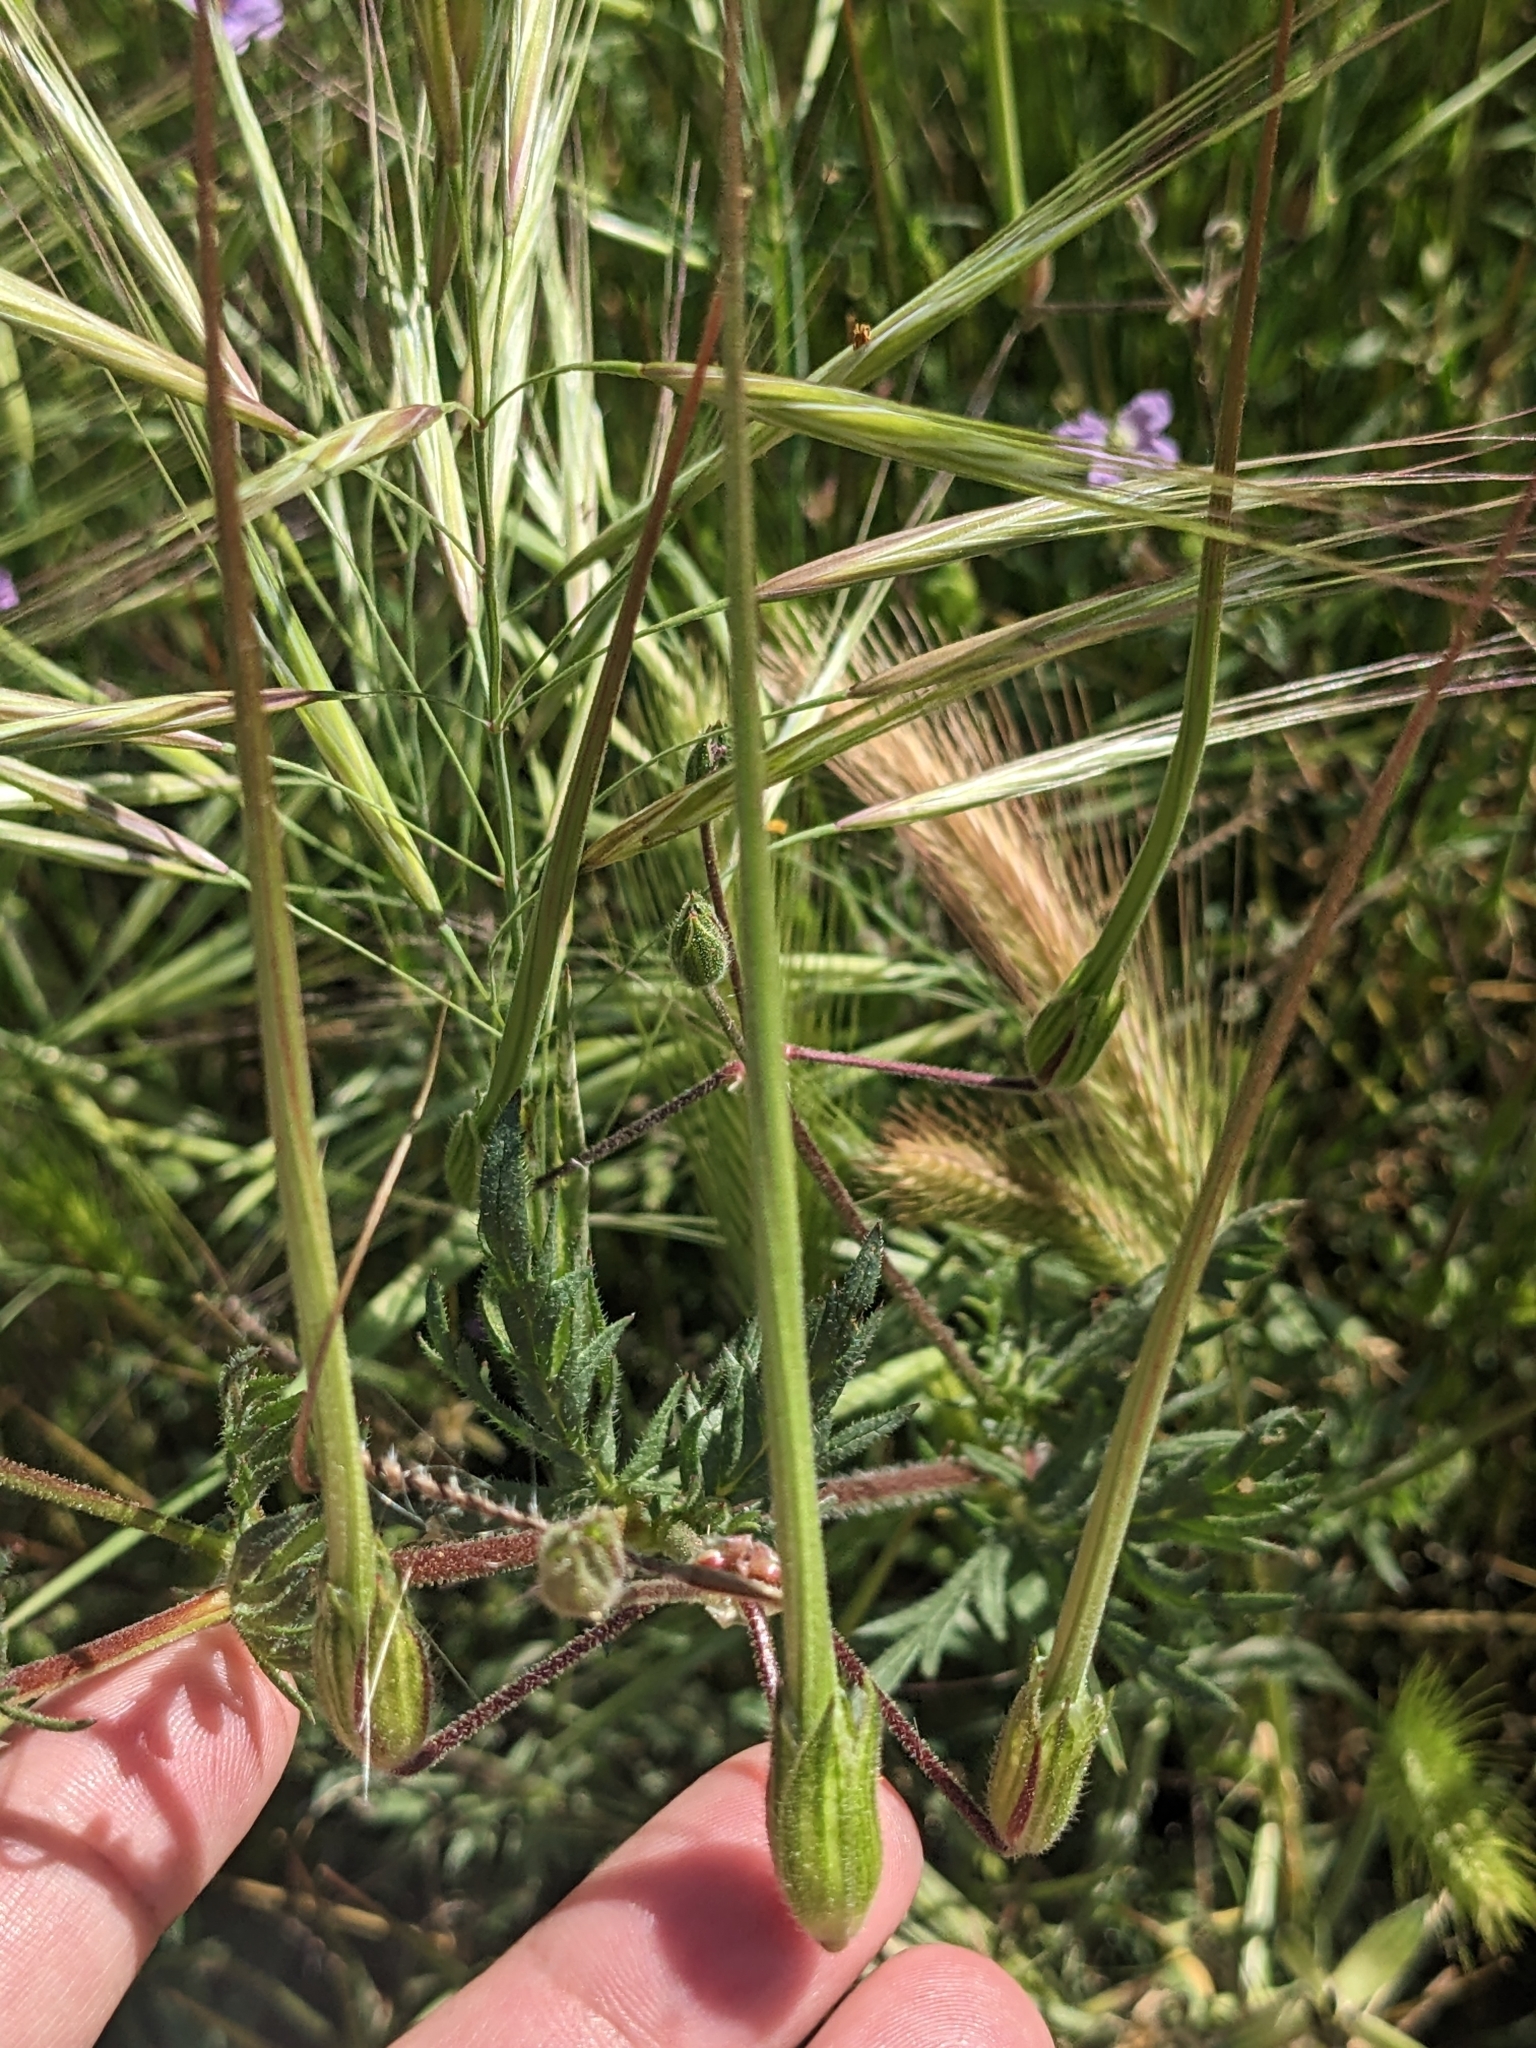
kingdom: Plantae
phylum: Tracheophyta
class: Magnoliopsida
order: Geraniales
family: Geraniaceae
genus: Erodium
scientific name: Erodium botrys
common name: Mediterranean stork's-bill
